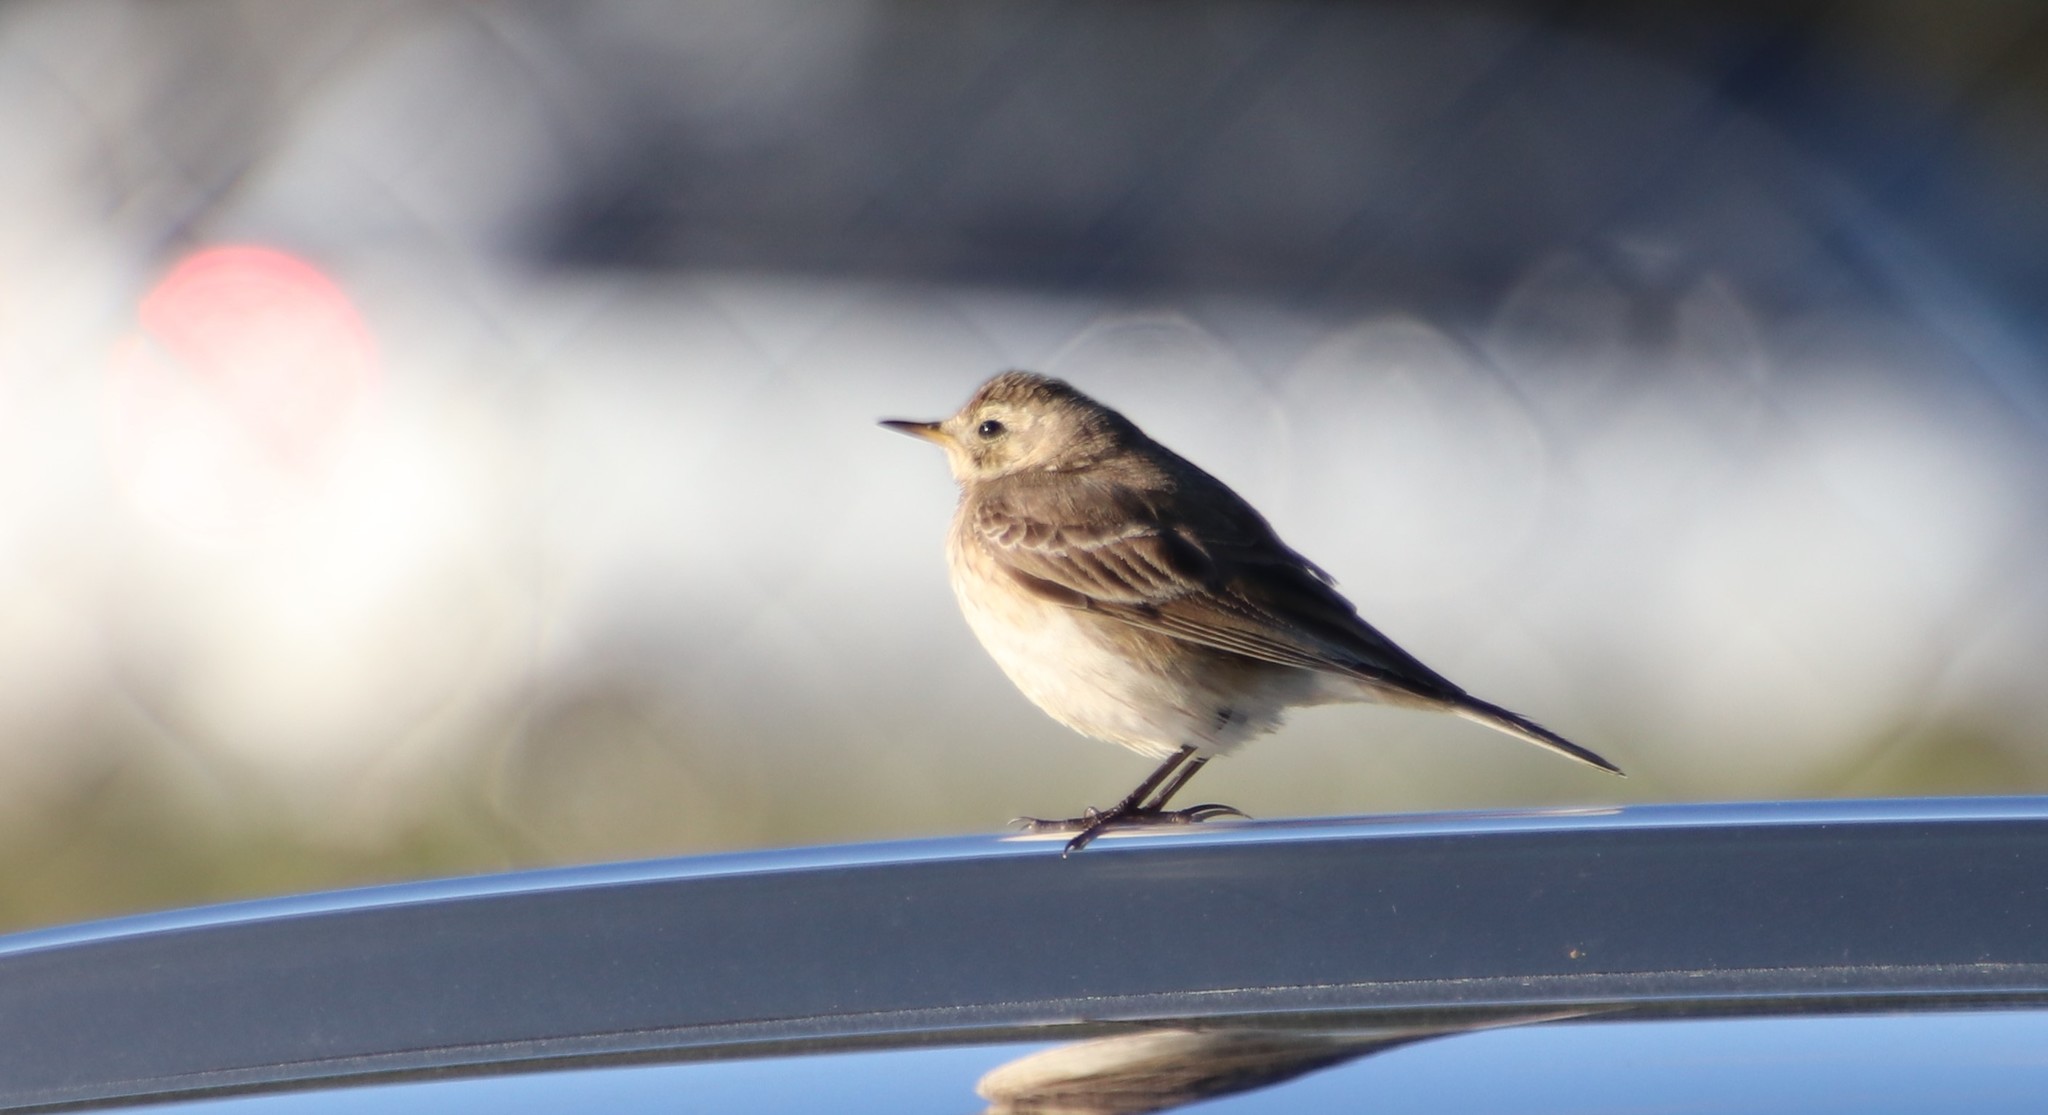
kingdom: Animalia
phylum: Chordata
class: Aves
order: Passeriformes
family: Motacillidae
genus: Anthus
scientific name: Anthus rubescens
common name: Buff-bellied pipit
